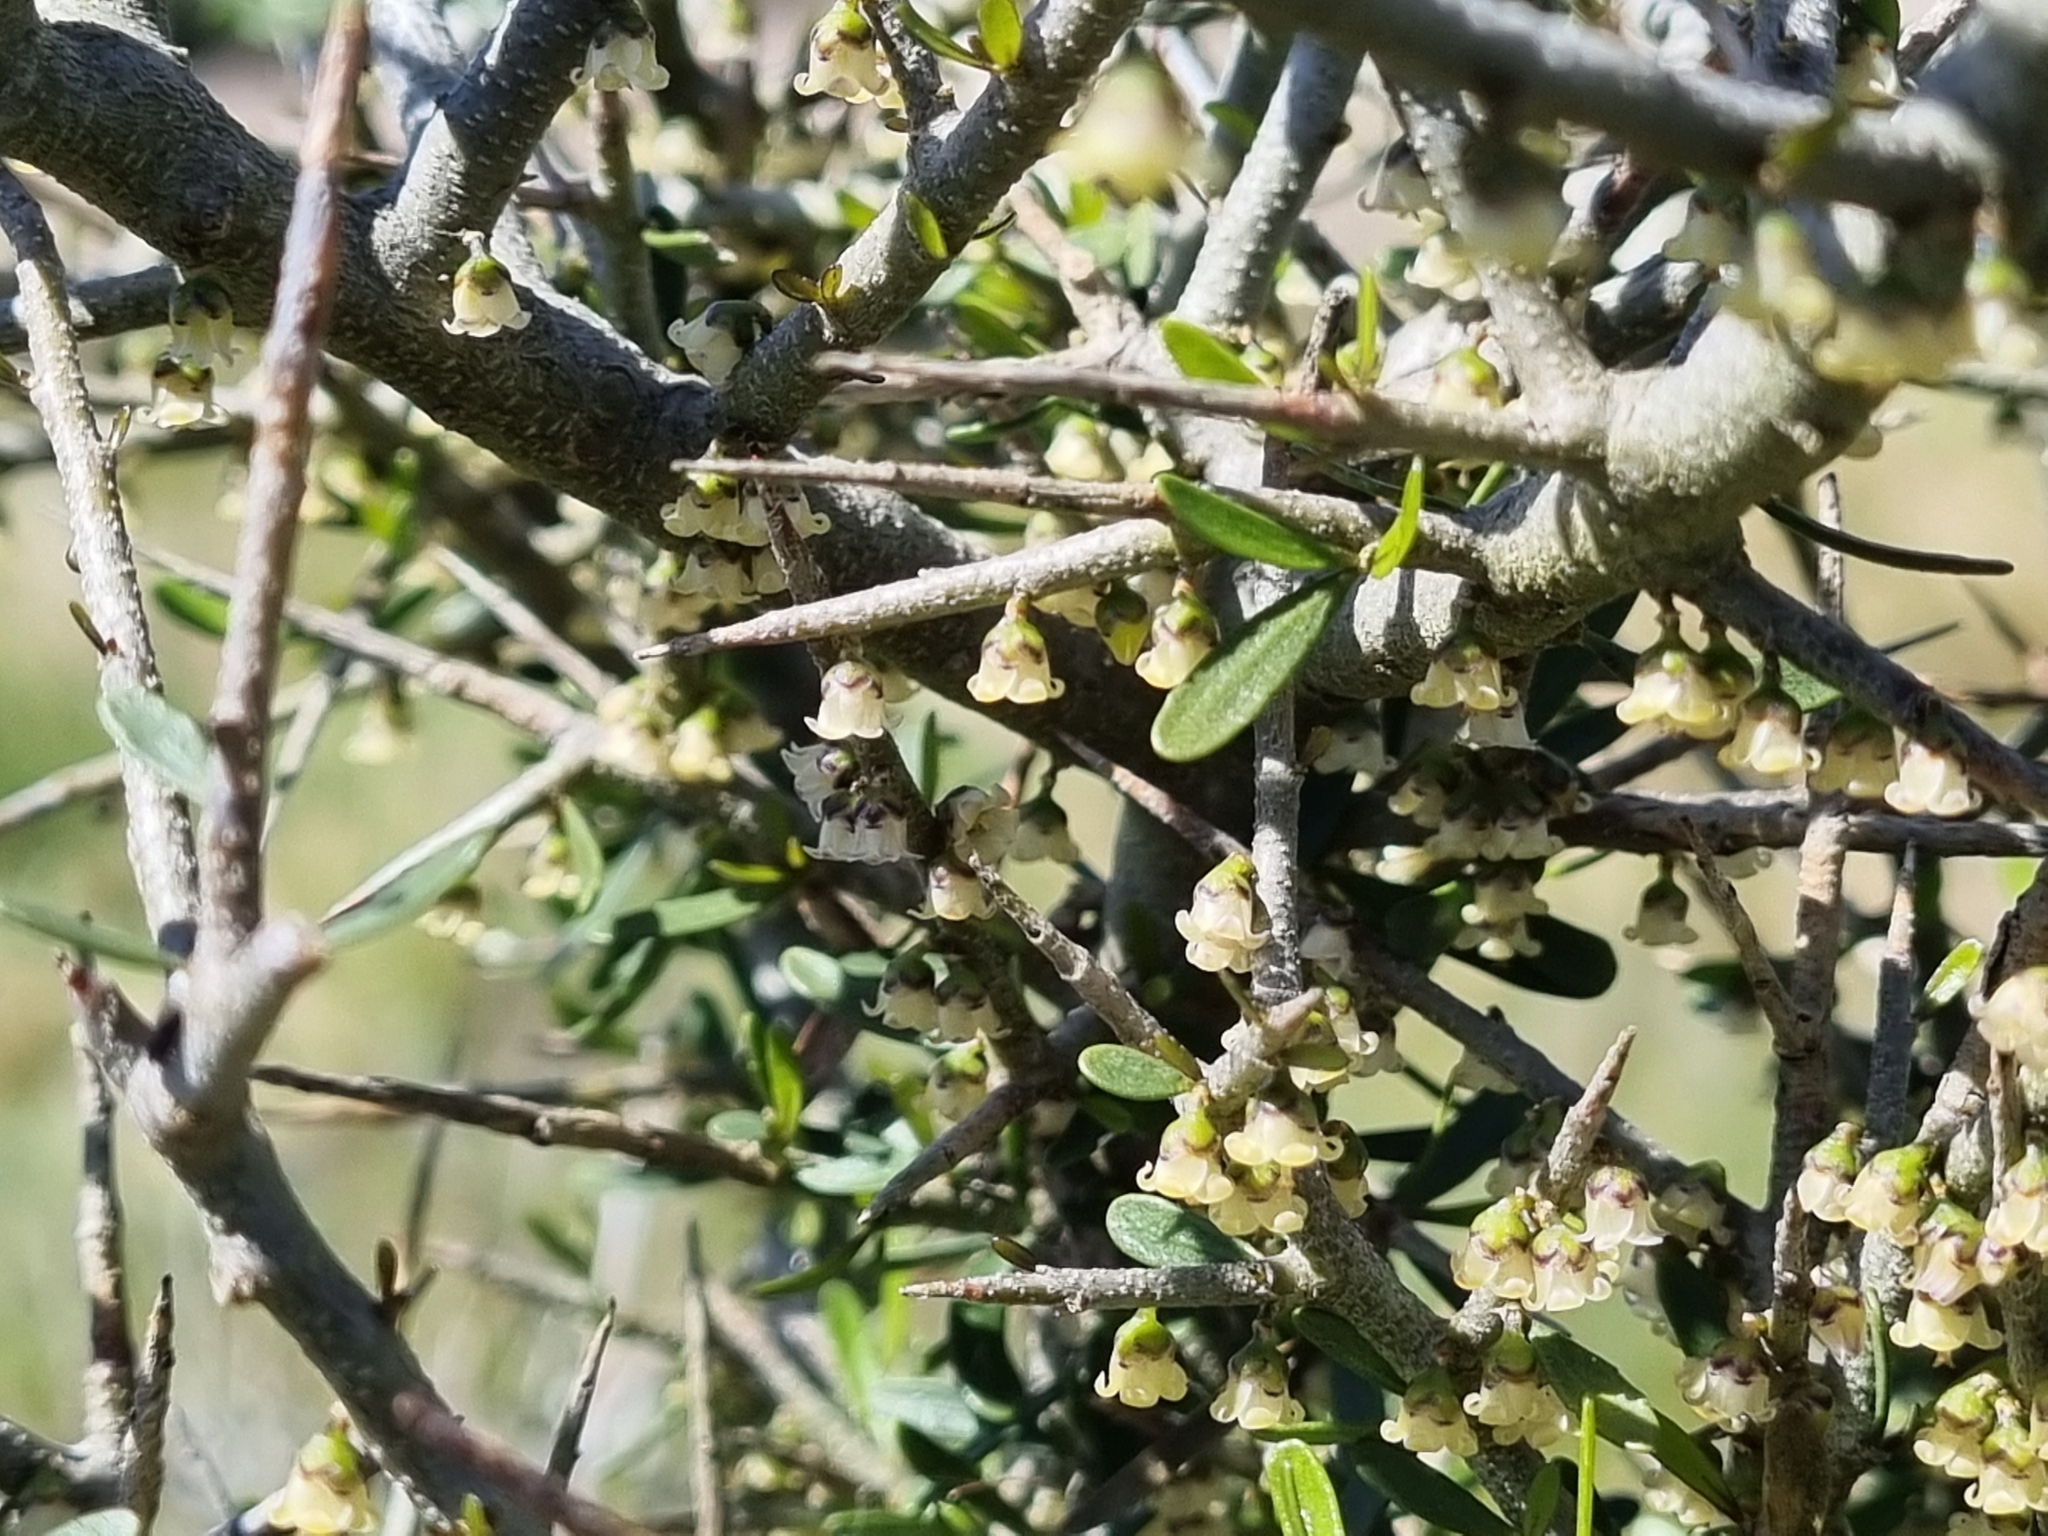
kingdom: Plantae
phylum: Tracheophyta
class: Magnoliopsida
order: Malpighiales
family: Violaceae
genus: Melicytus
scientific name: Melicytus dentatus
